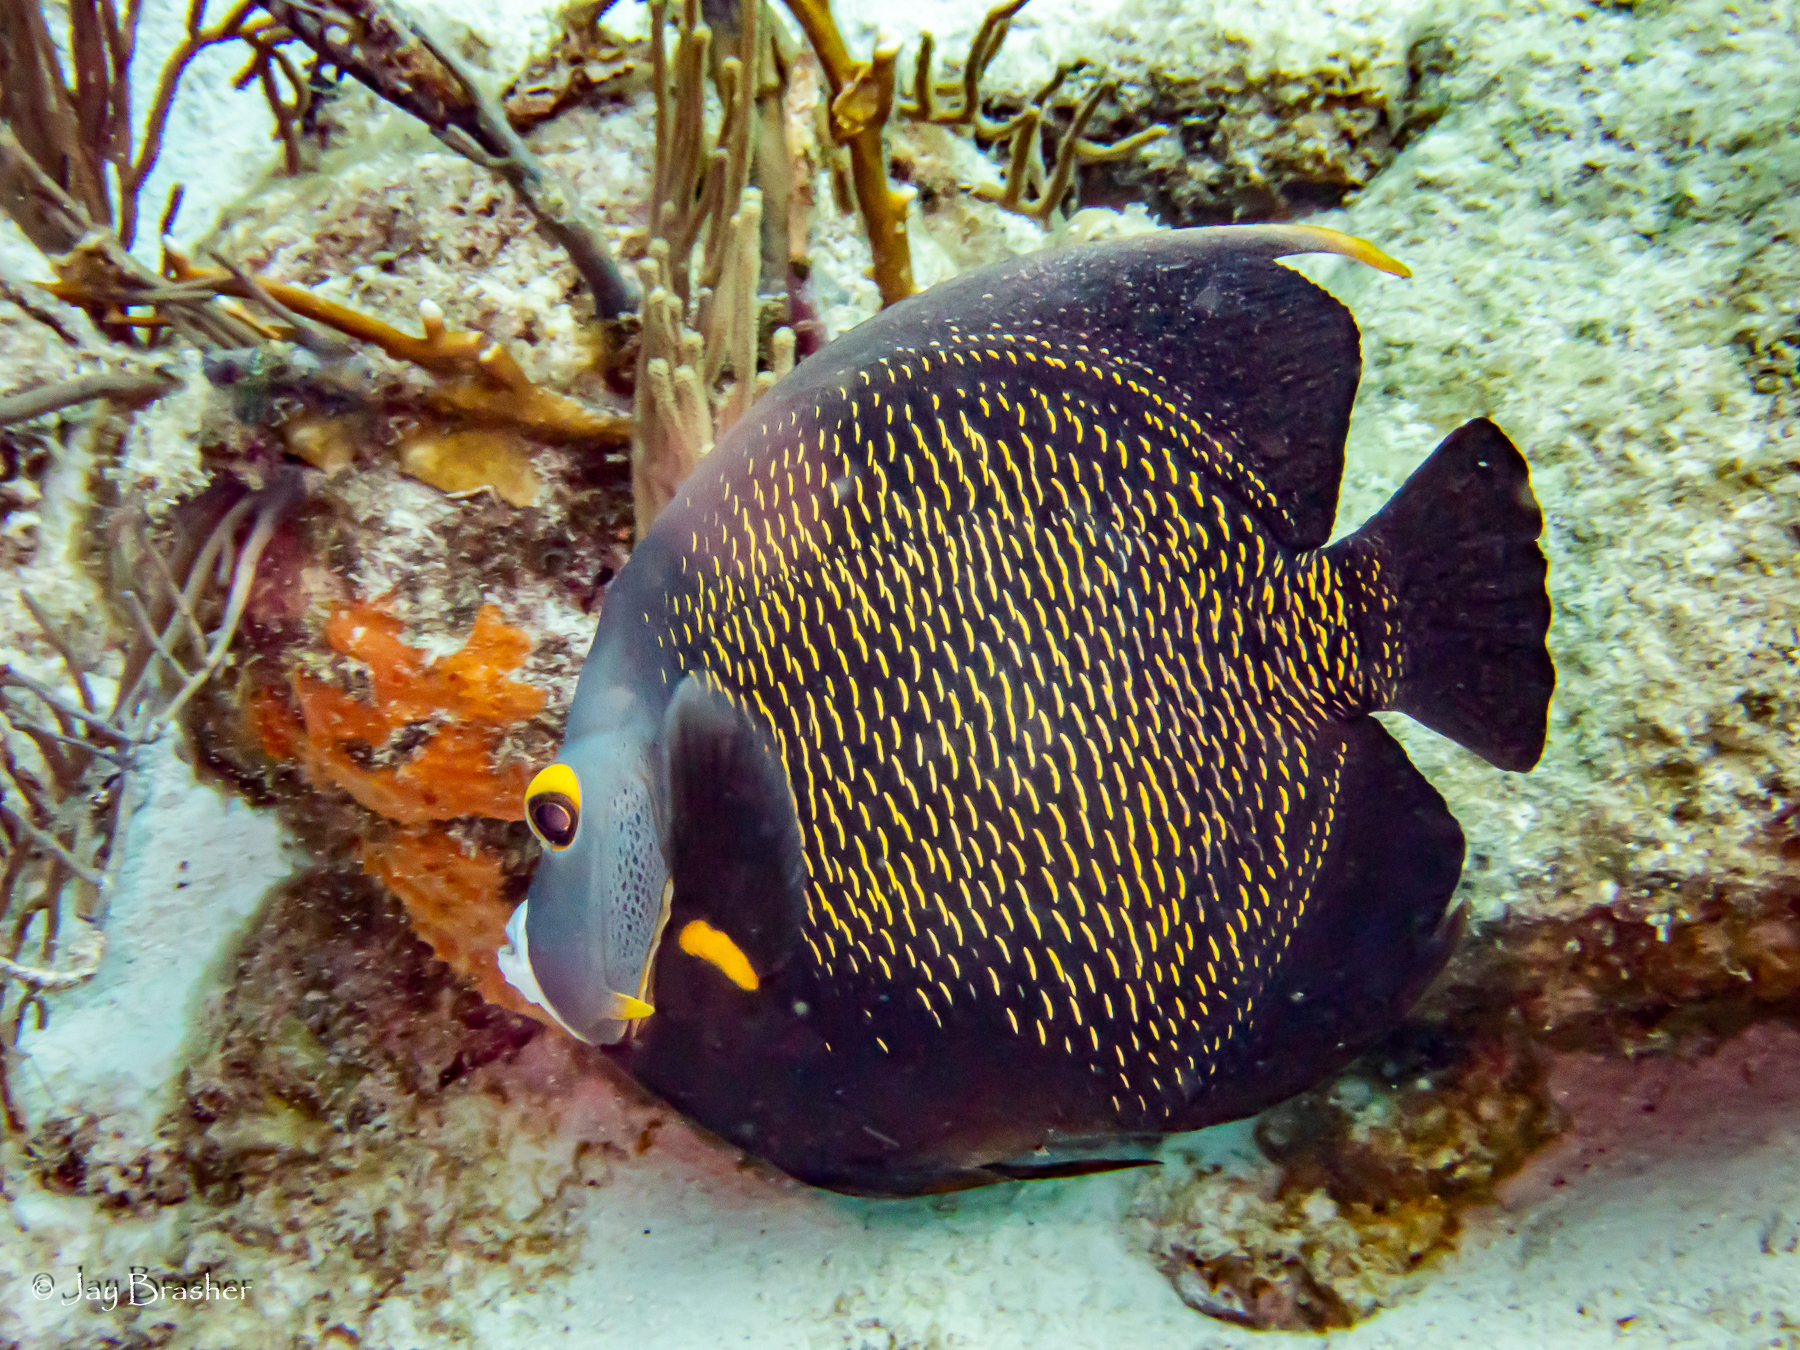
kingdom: Animalia
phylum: Porifera
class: Demospongiae
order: Scopalinida
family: Scopalinidae
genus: Scopalina
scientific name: Scopalina ruetzleri
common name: Orange lumpy encrusting sponge
